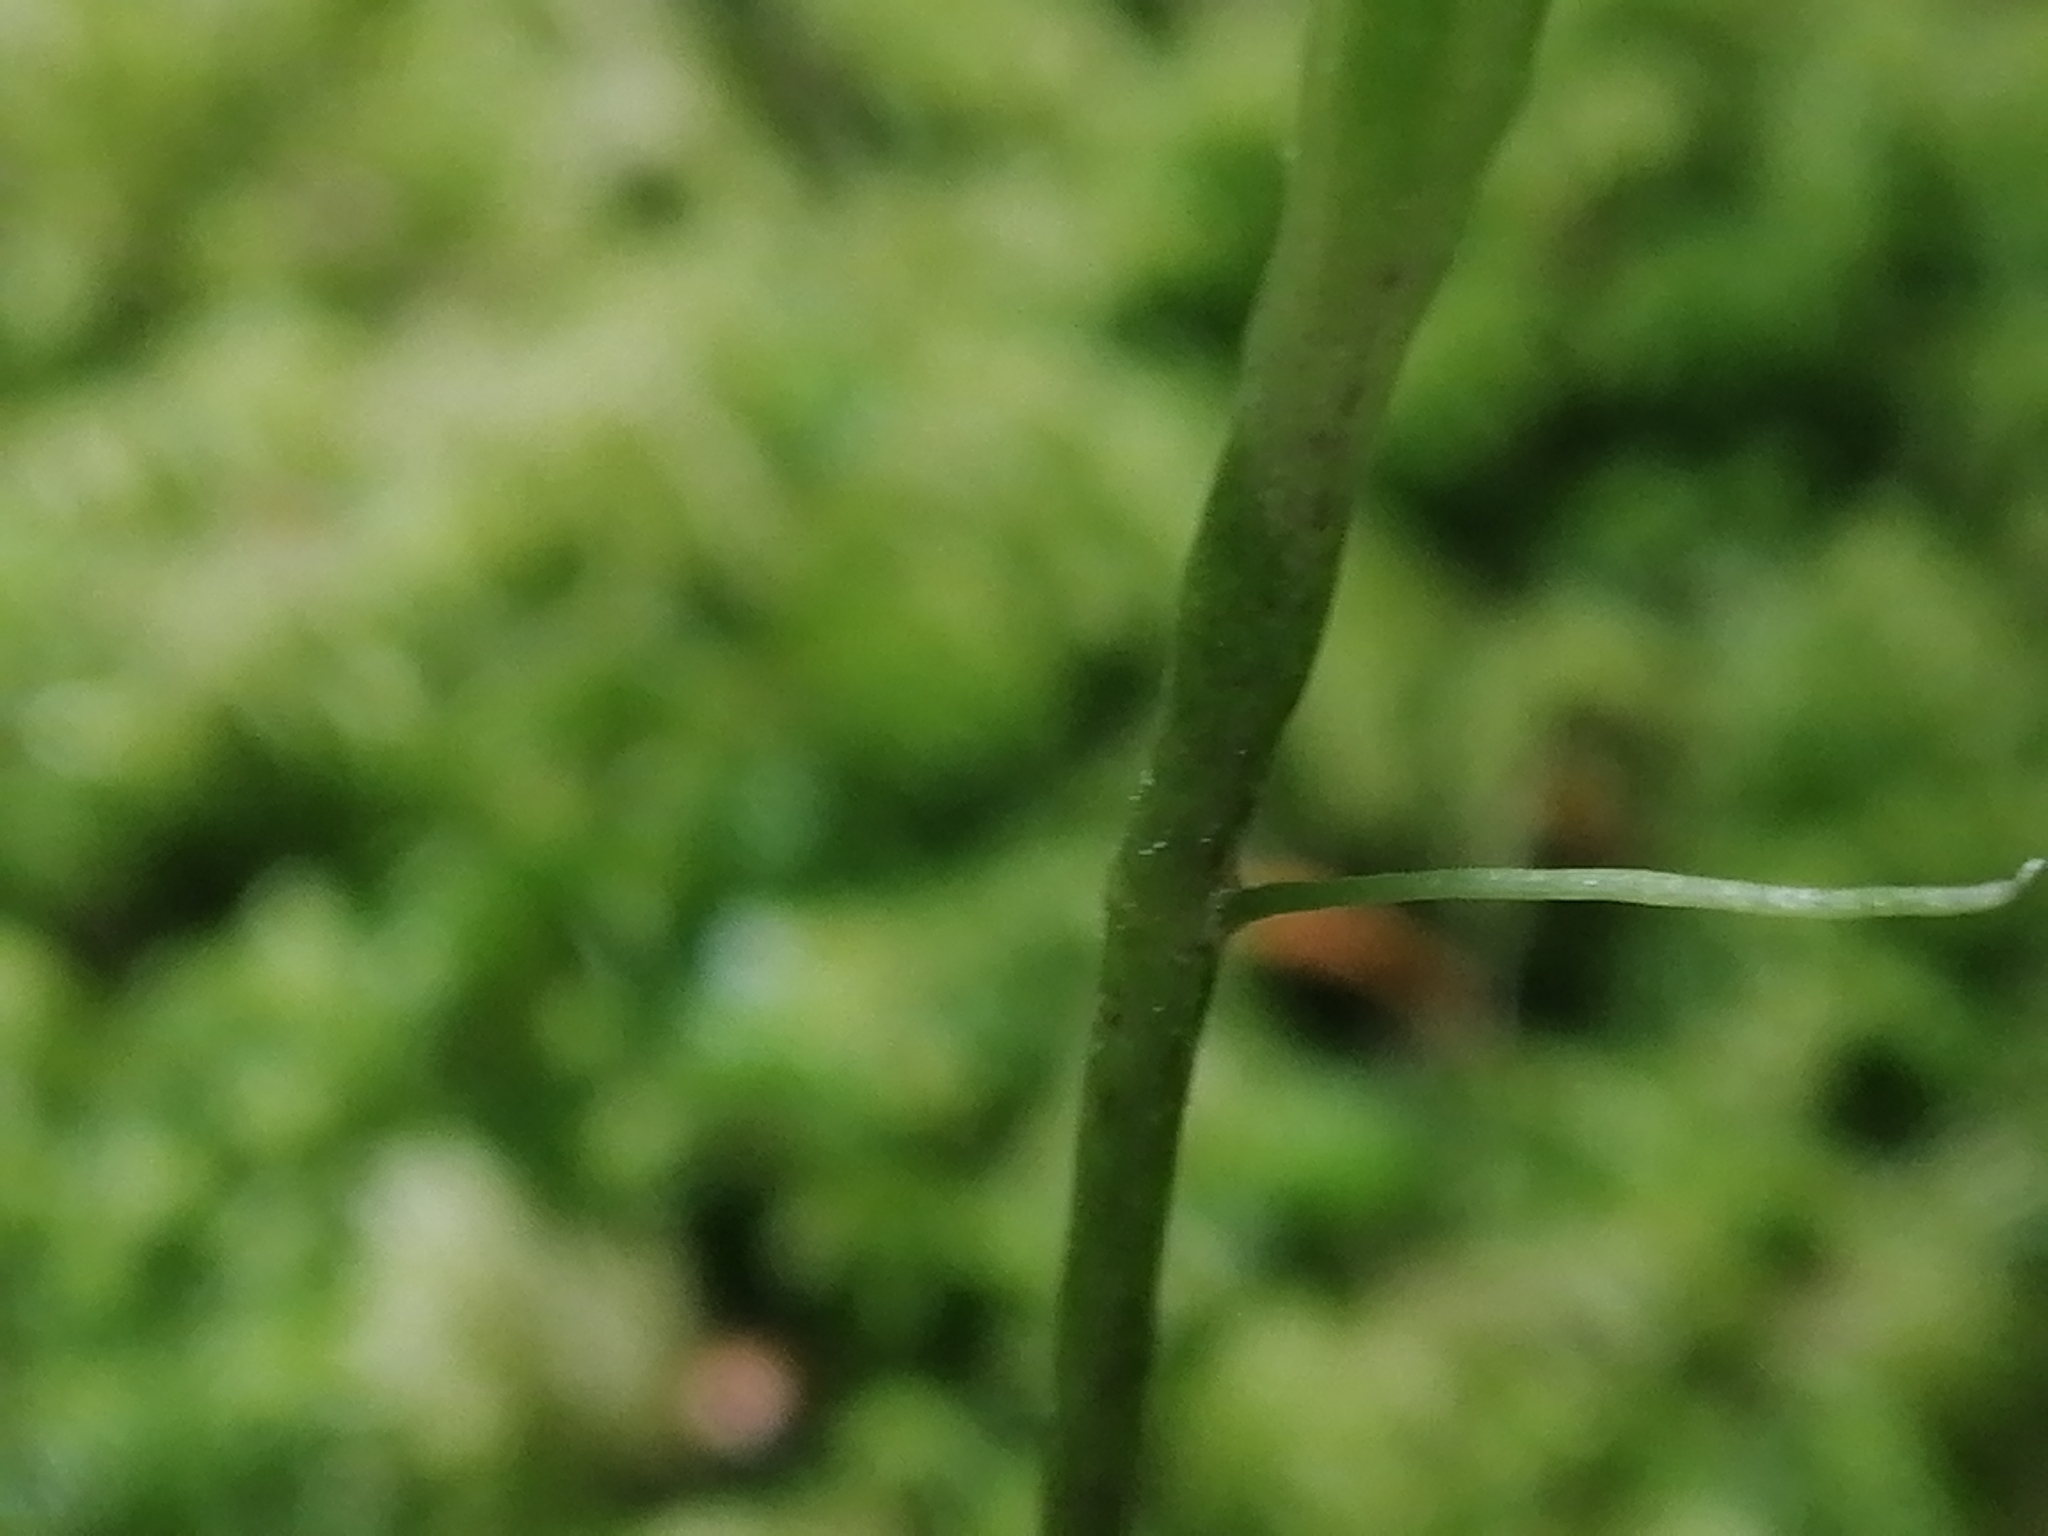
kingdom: Plantae
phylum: Tracheophyta
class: Liliopsida
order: Asparagales
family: Orchidaceae
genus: Adenochilus
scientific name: Adenochilus gracilis
